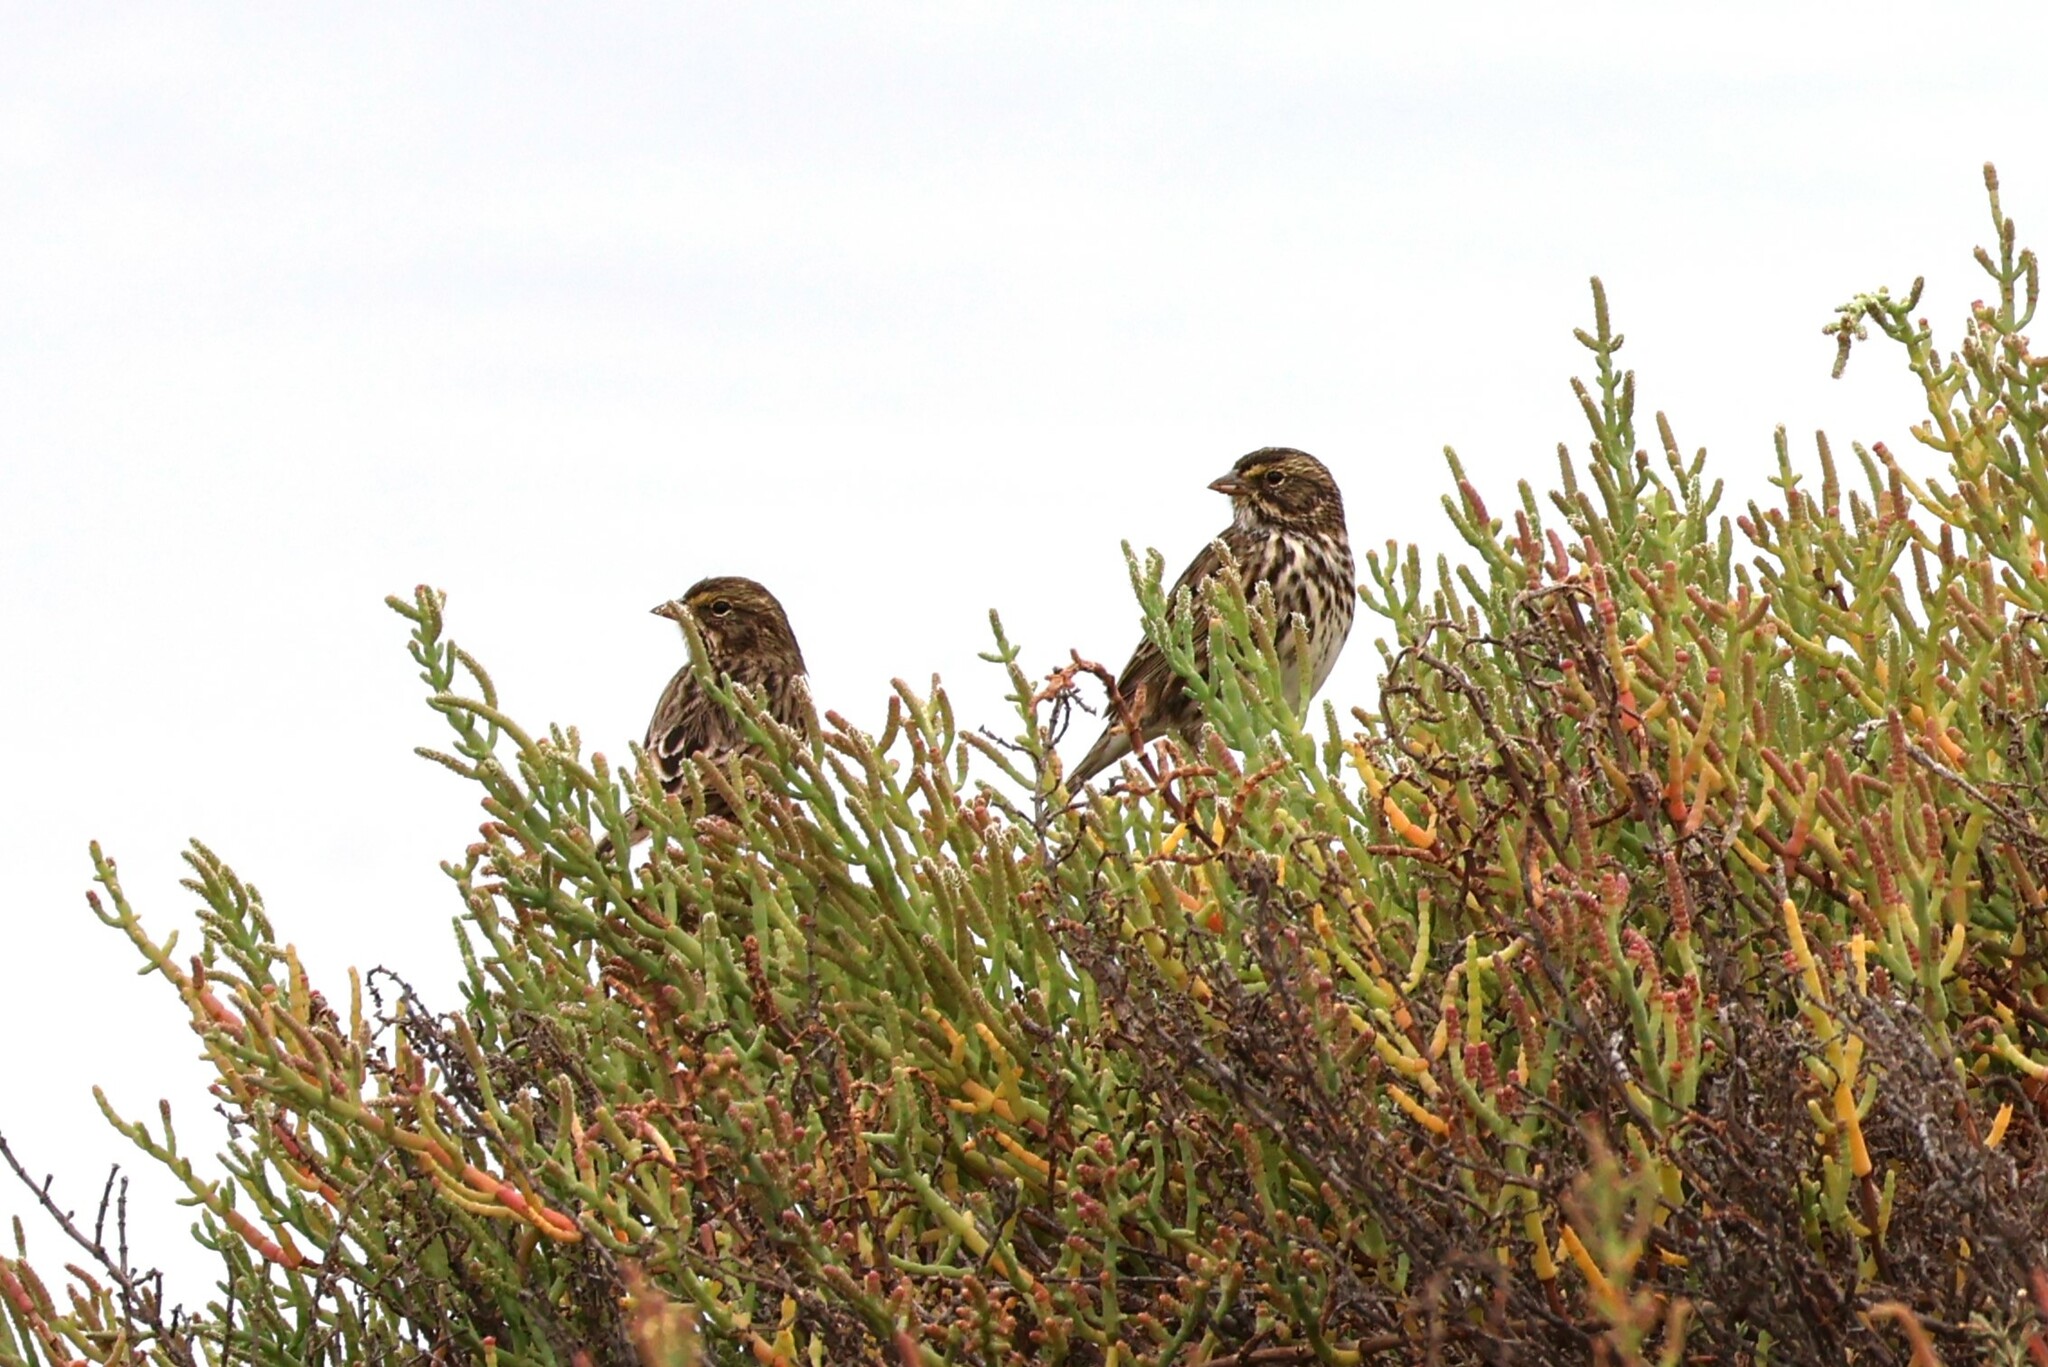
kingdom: Animalia
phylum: Chordata
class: Aves
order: Passeriformes
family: Passerellidae
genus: Passerculus
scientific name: Passerculus sandwichensis
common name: Savannah sparrow
